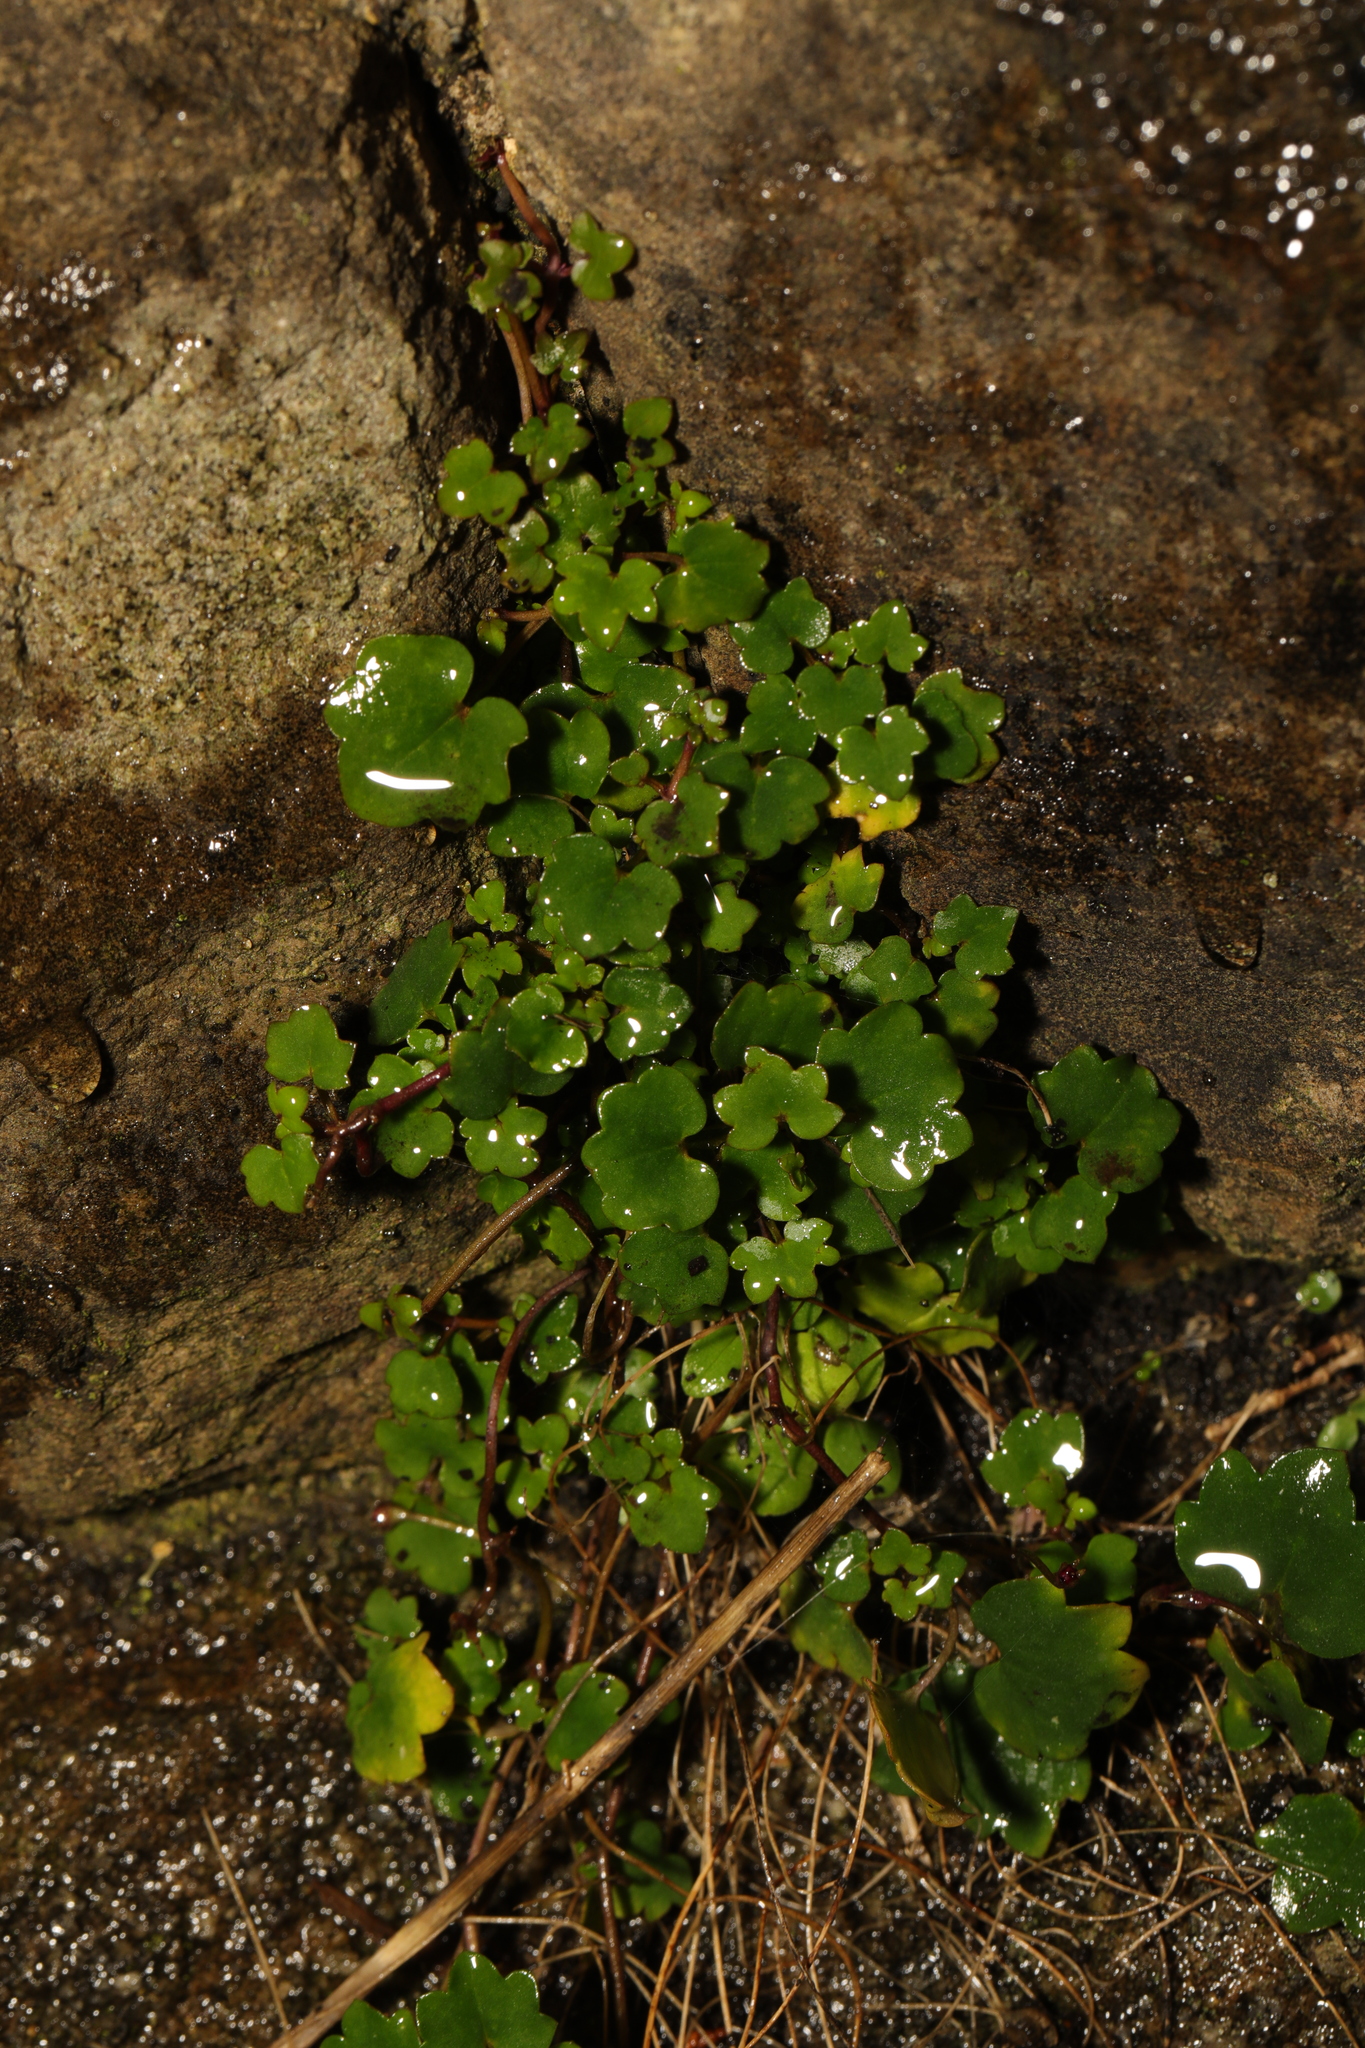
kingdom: Plantae
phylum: Tracheophyta
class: Magnoliopsida
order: Lamiales
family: Plantaginaceae
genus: Cymbalaria
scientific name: Cymbalaria muralis
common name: Ivy-leaved toadflax
